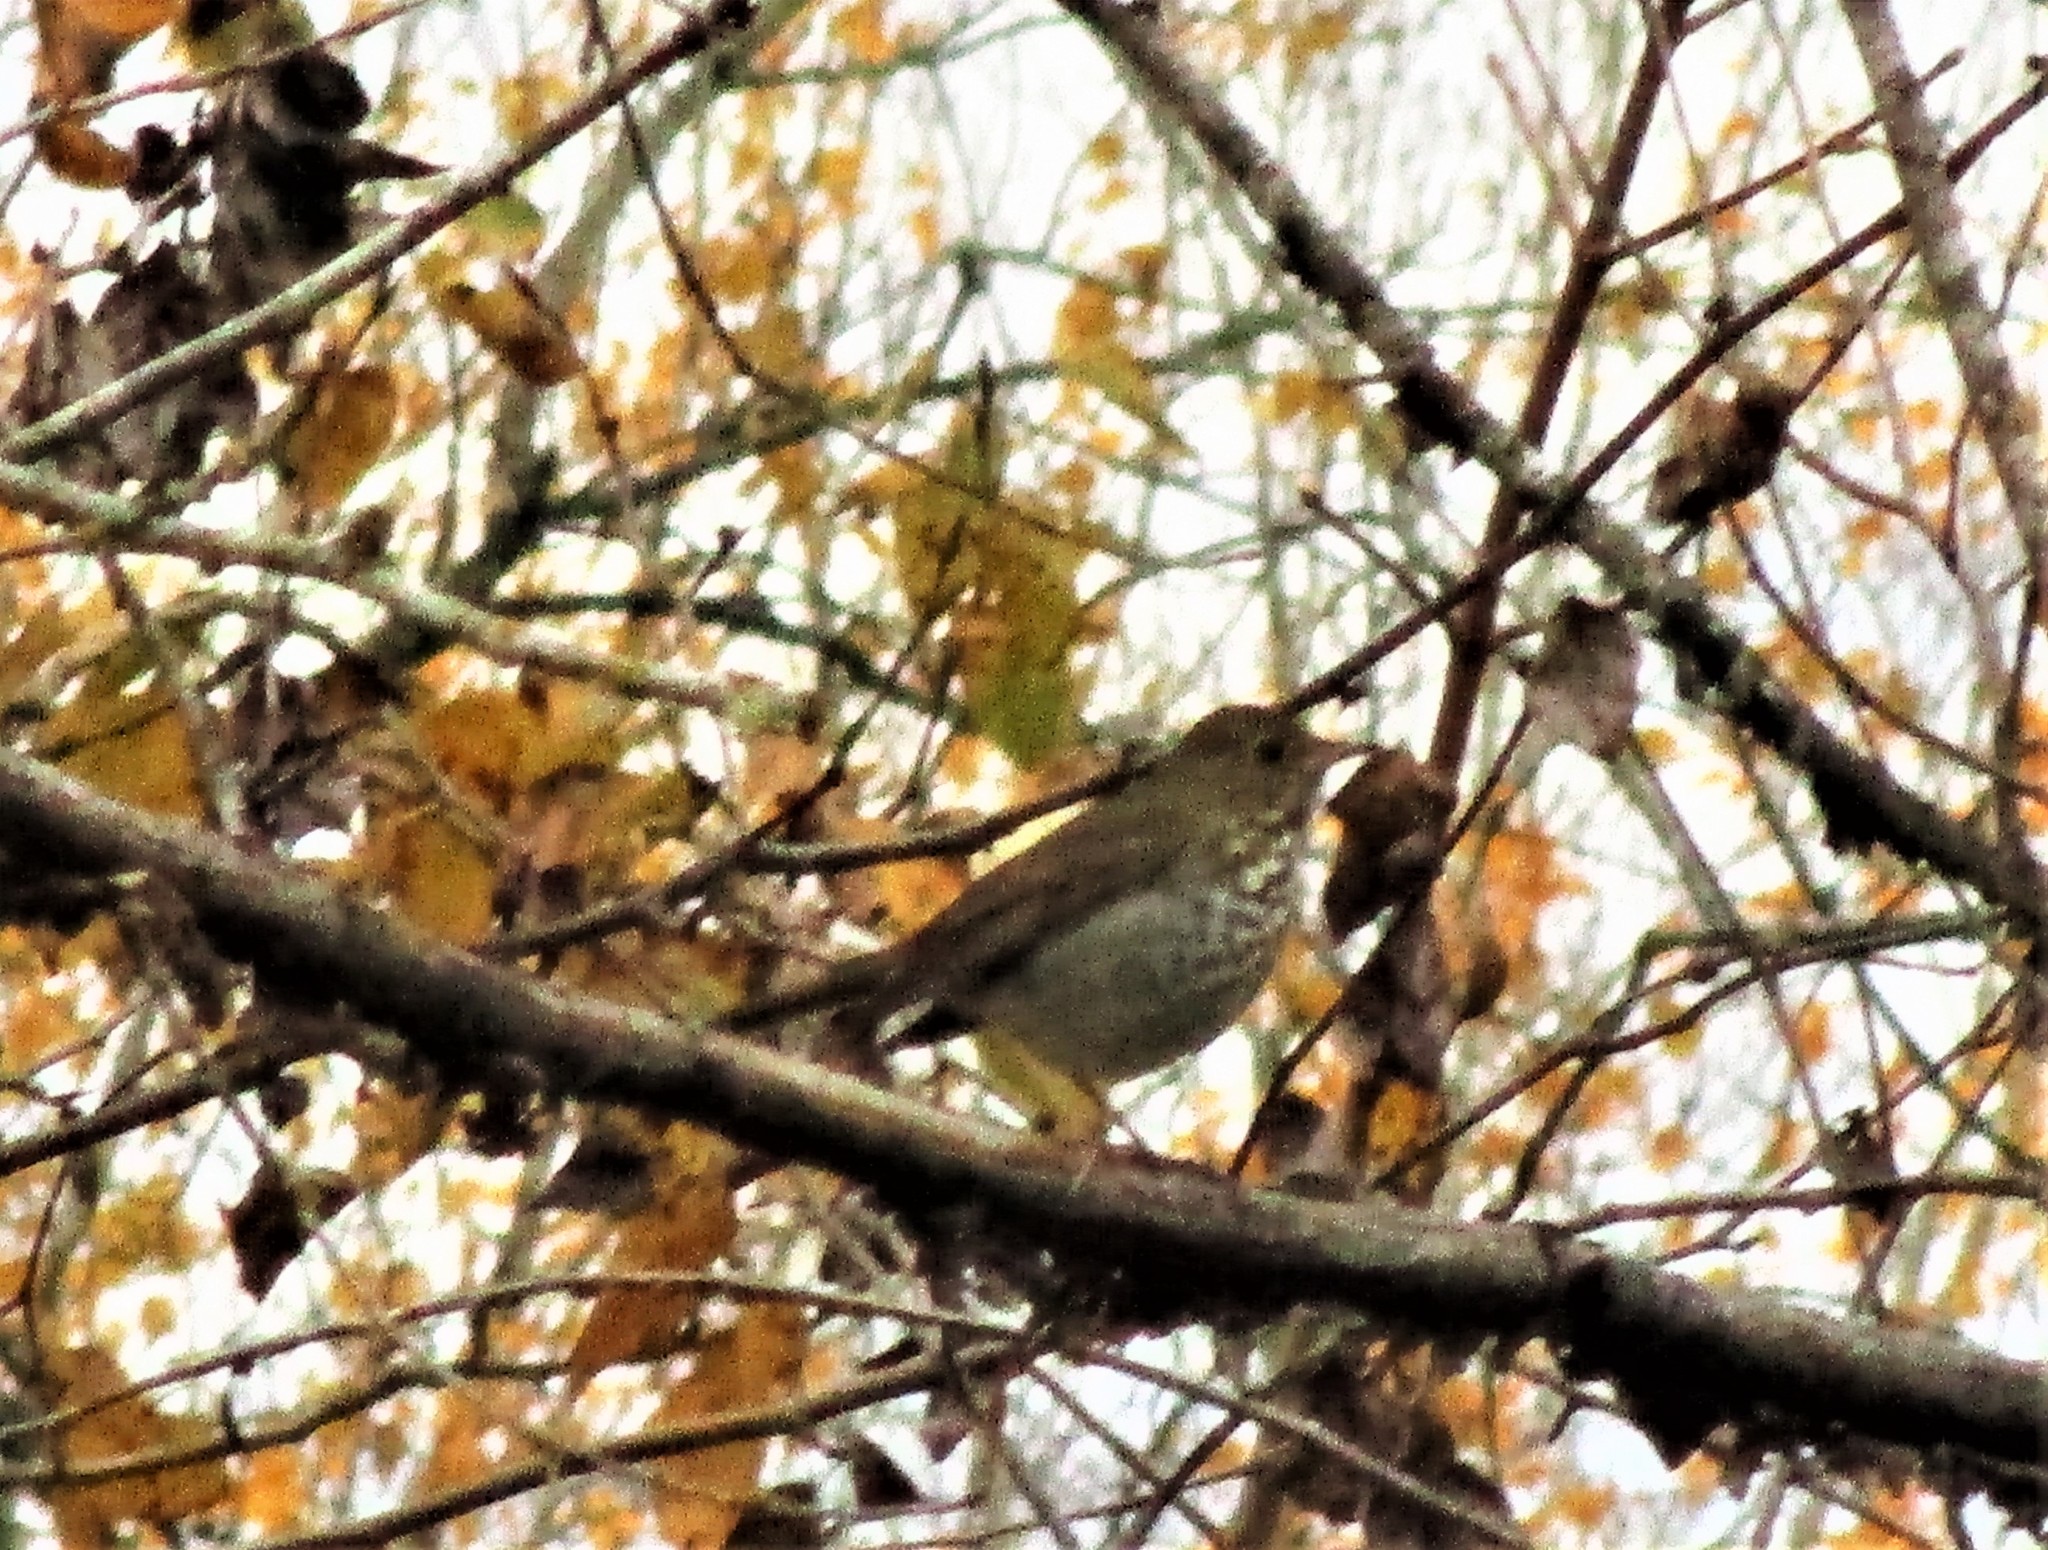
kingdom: Animalia
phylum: Chordata
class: Aves
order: Passeriformes
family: Turdidae
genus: Catharus
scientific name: Catharus guttatus
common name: Hermit thrush
